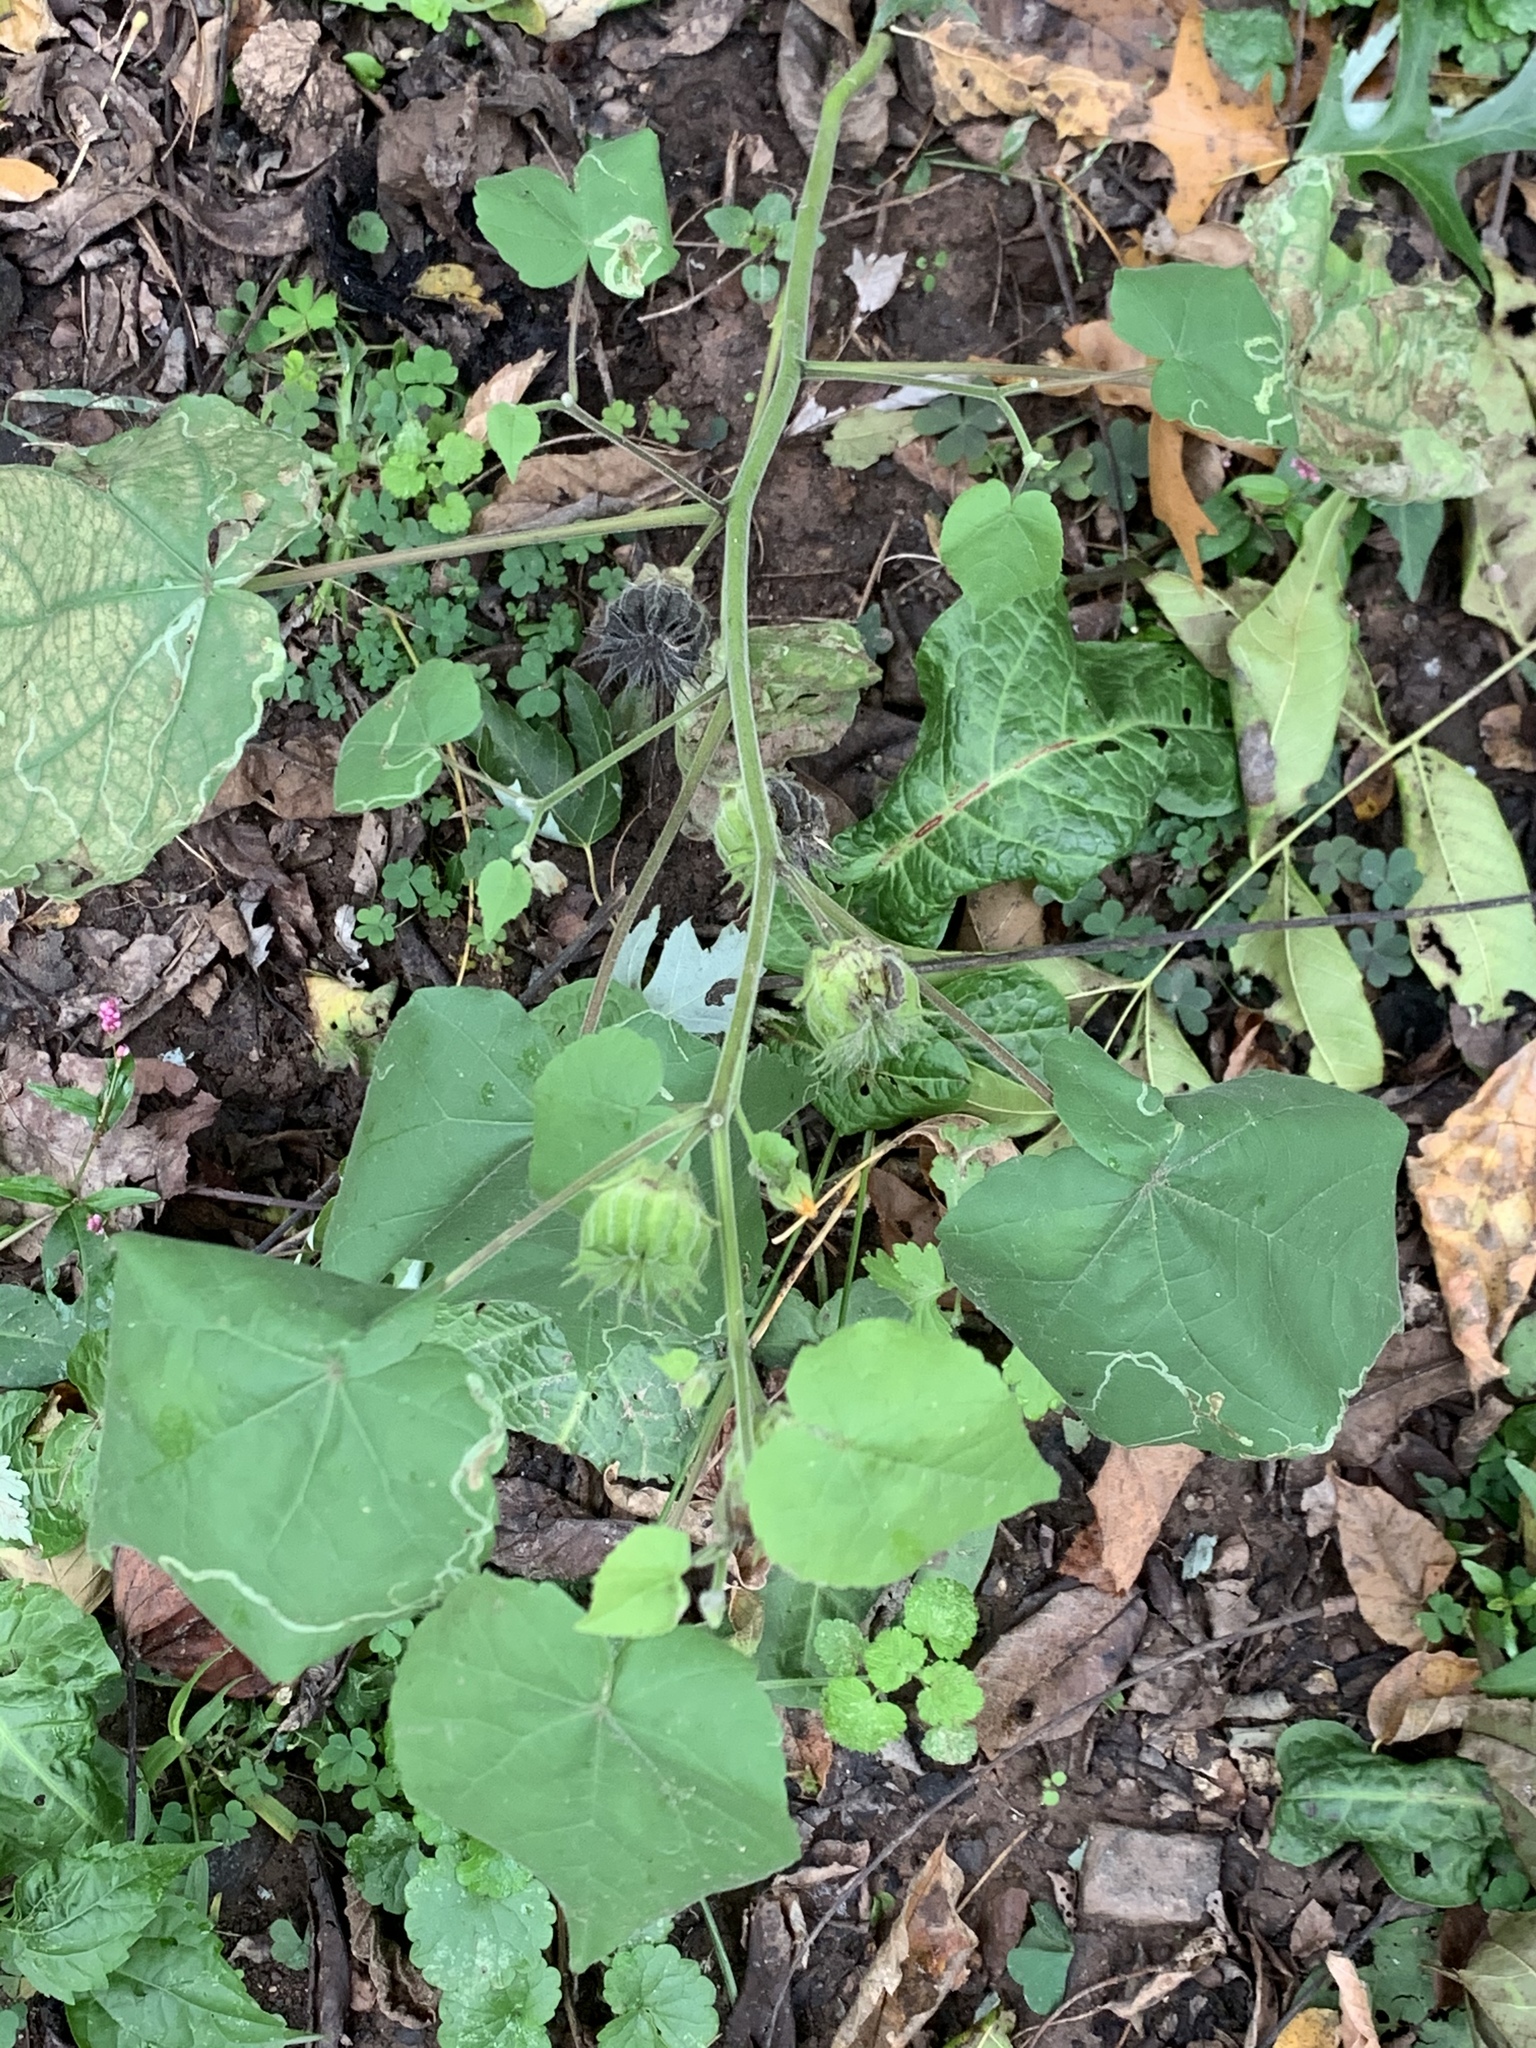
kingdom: Plantae
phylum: Tracheophyta
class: Magnoliopsida
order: Malvales
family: Malvaceae
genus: Abutilon
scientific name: Abutilon theophrasti
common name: Velvetleaf
